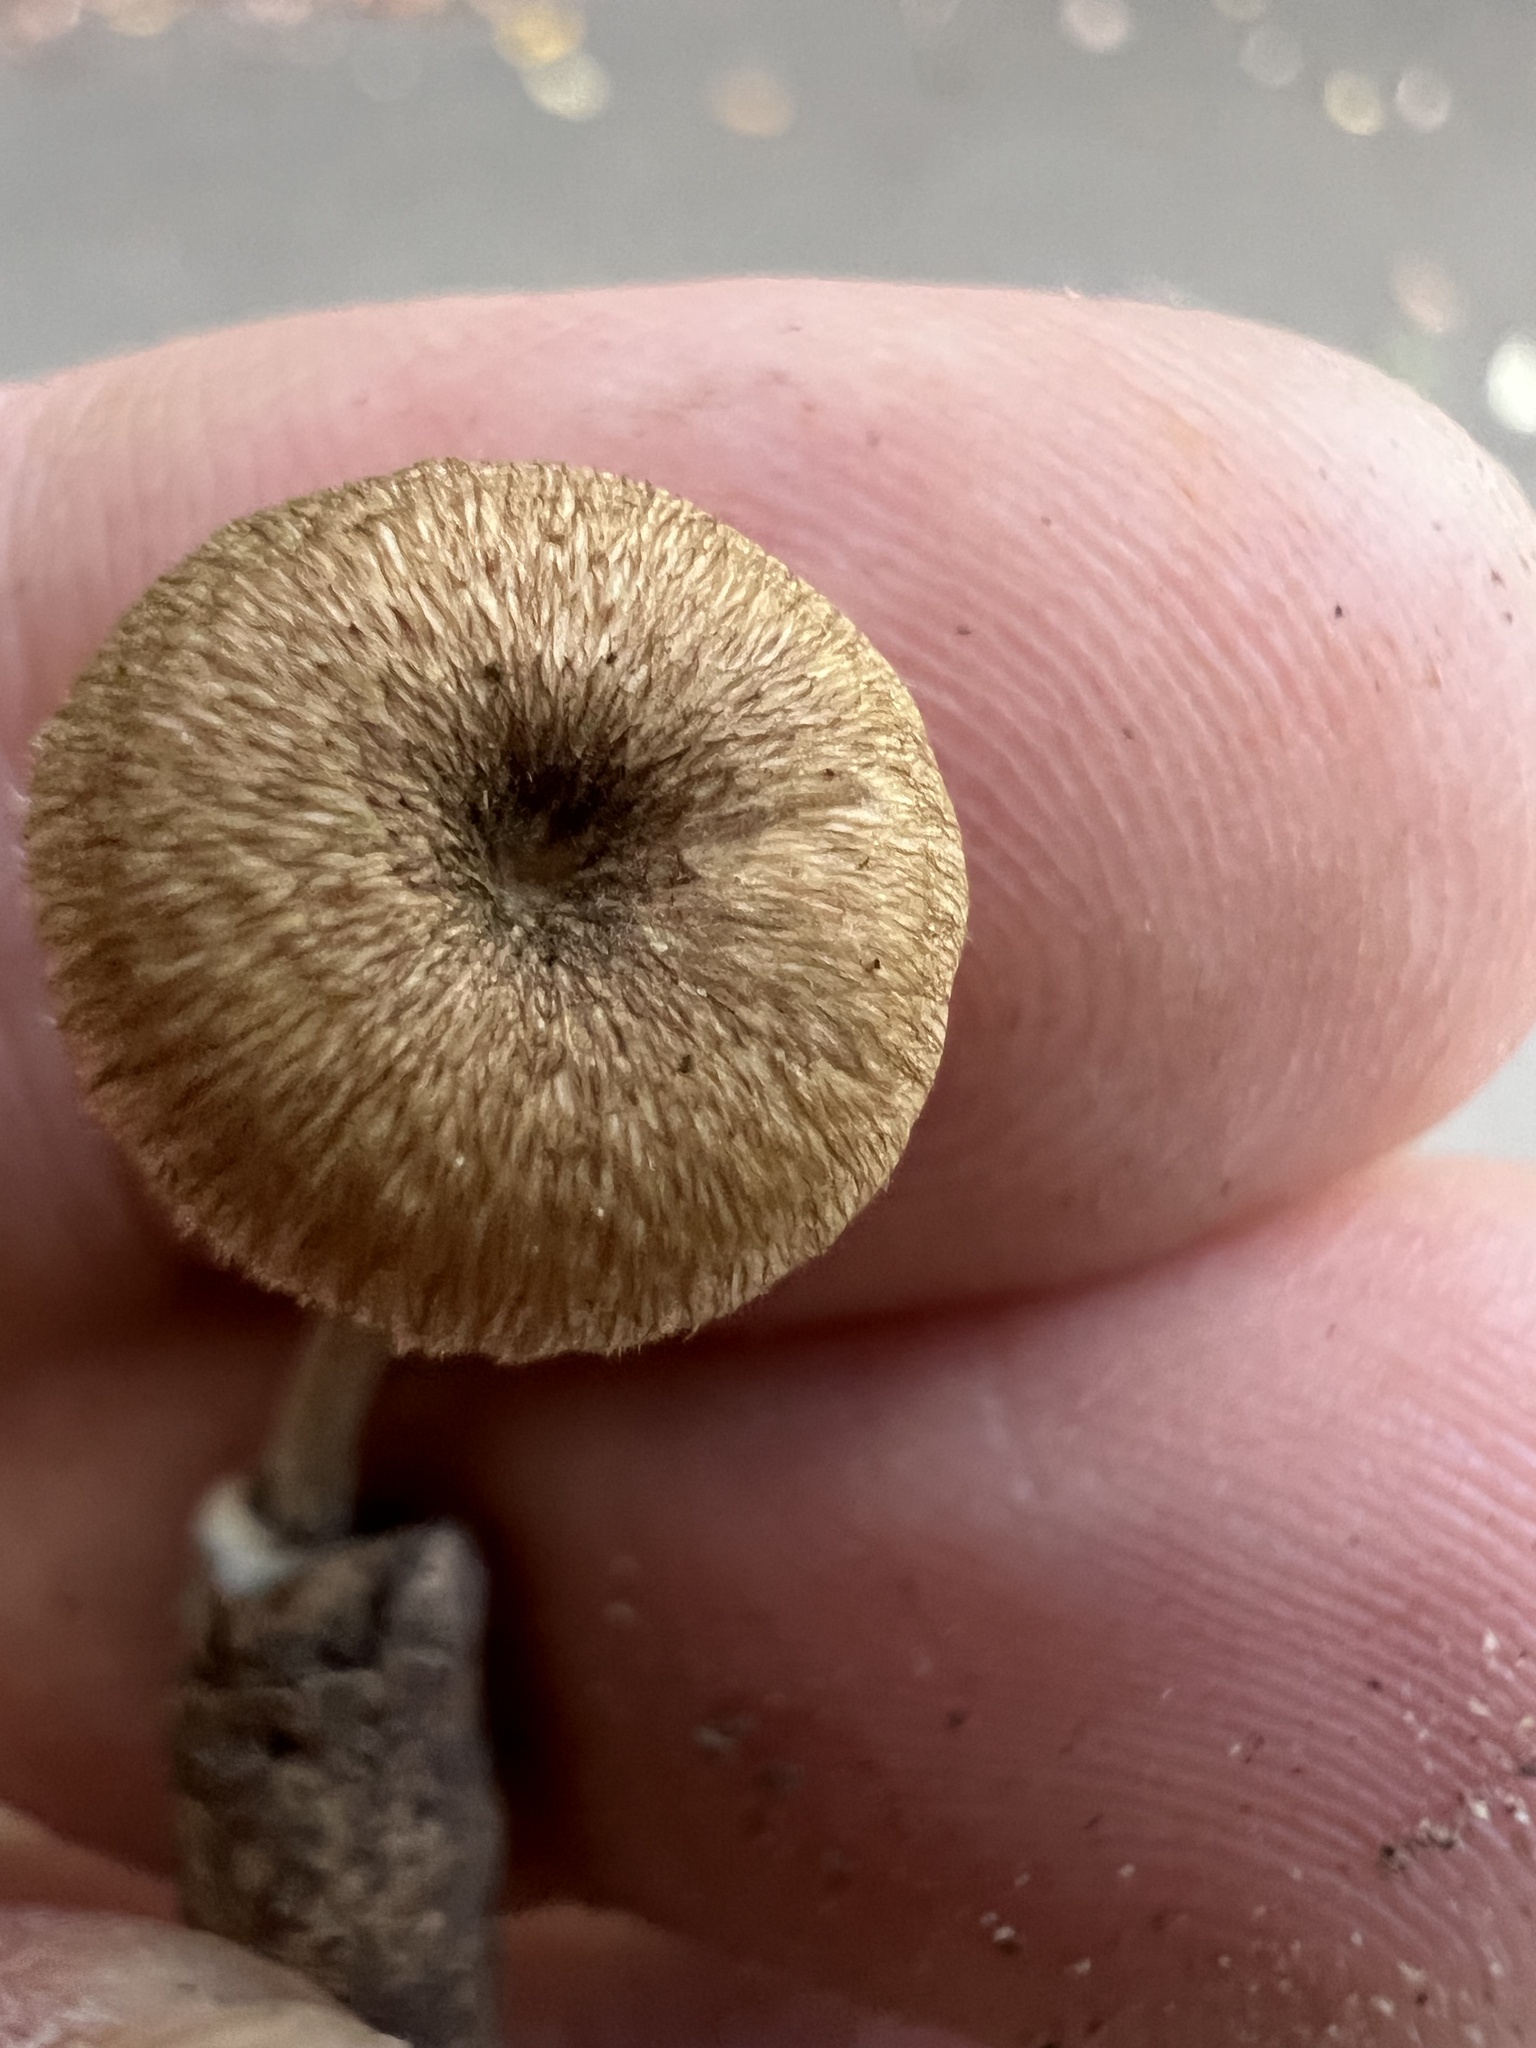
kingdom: Fungi
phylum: Basidiomycota
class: Agaricomycetes
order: Polyporales
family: Polyporaceae
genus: Lentinus
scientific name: Lentinus arcularius
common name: Spring polypore
